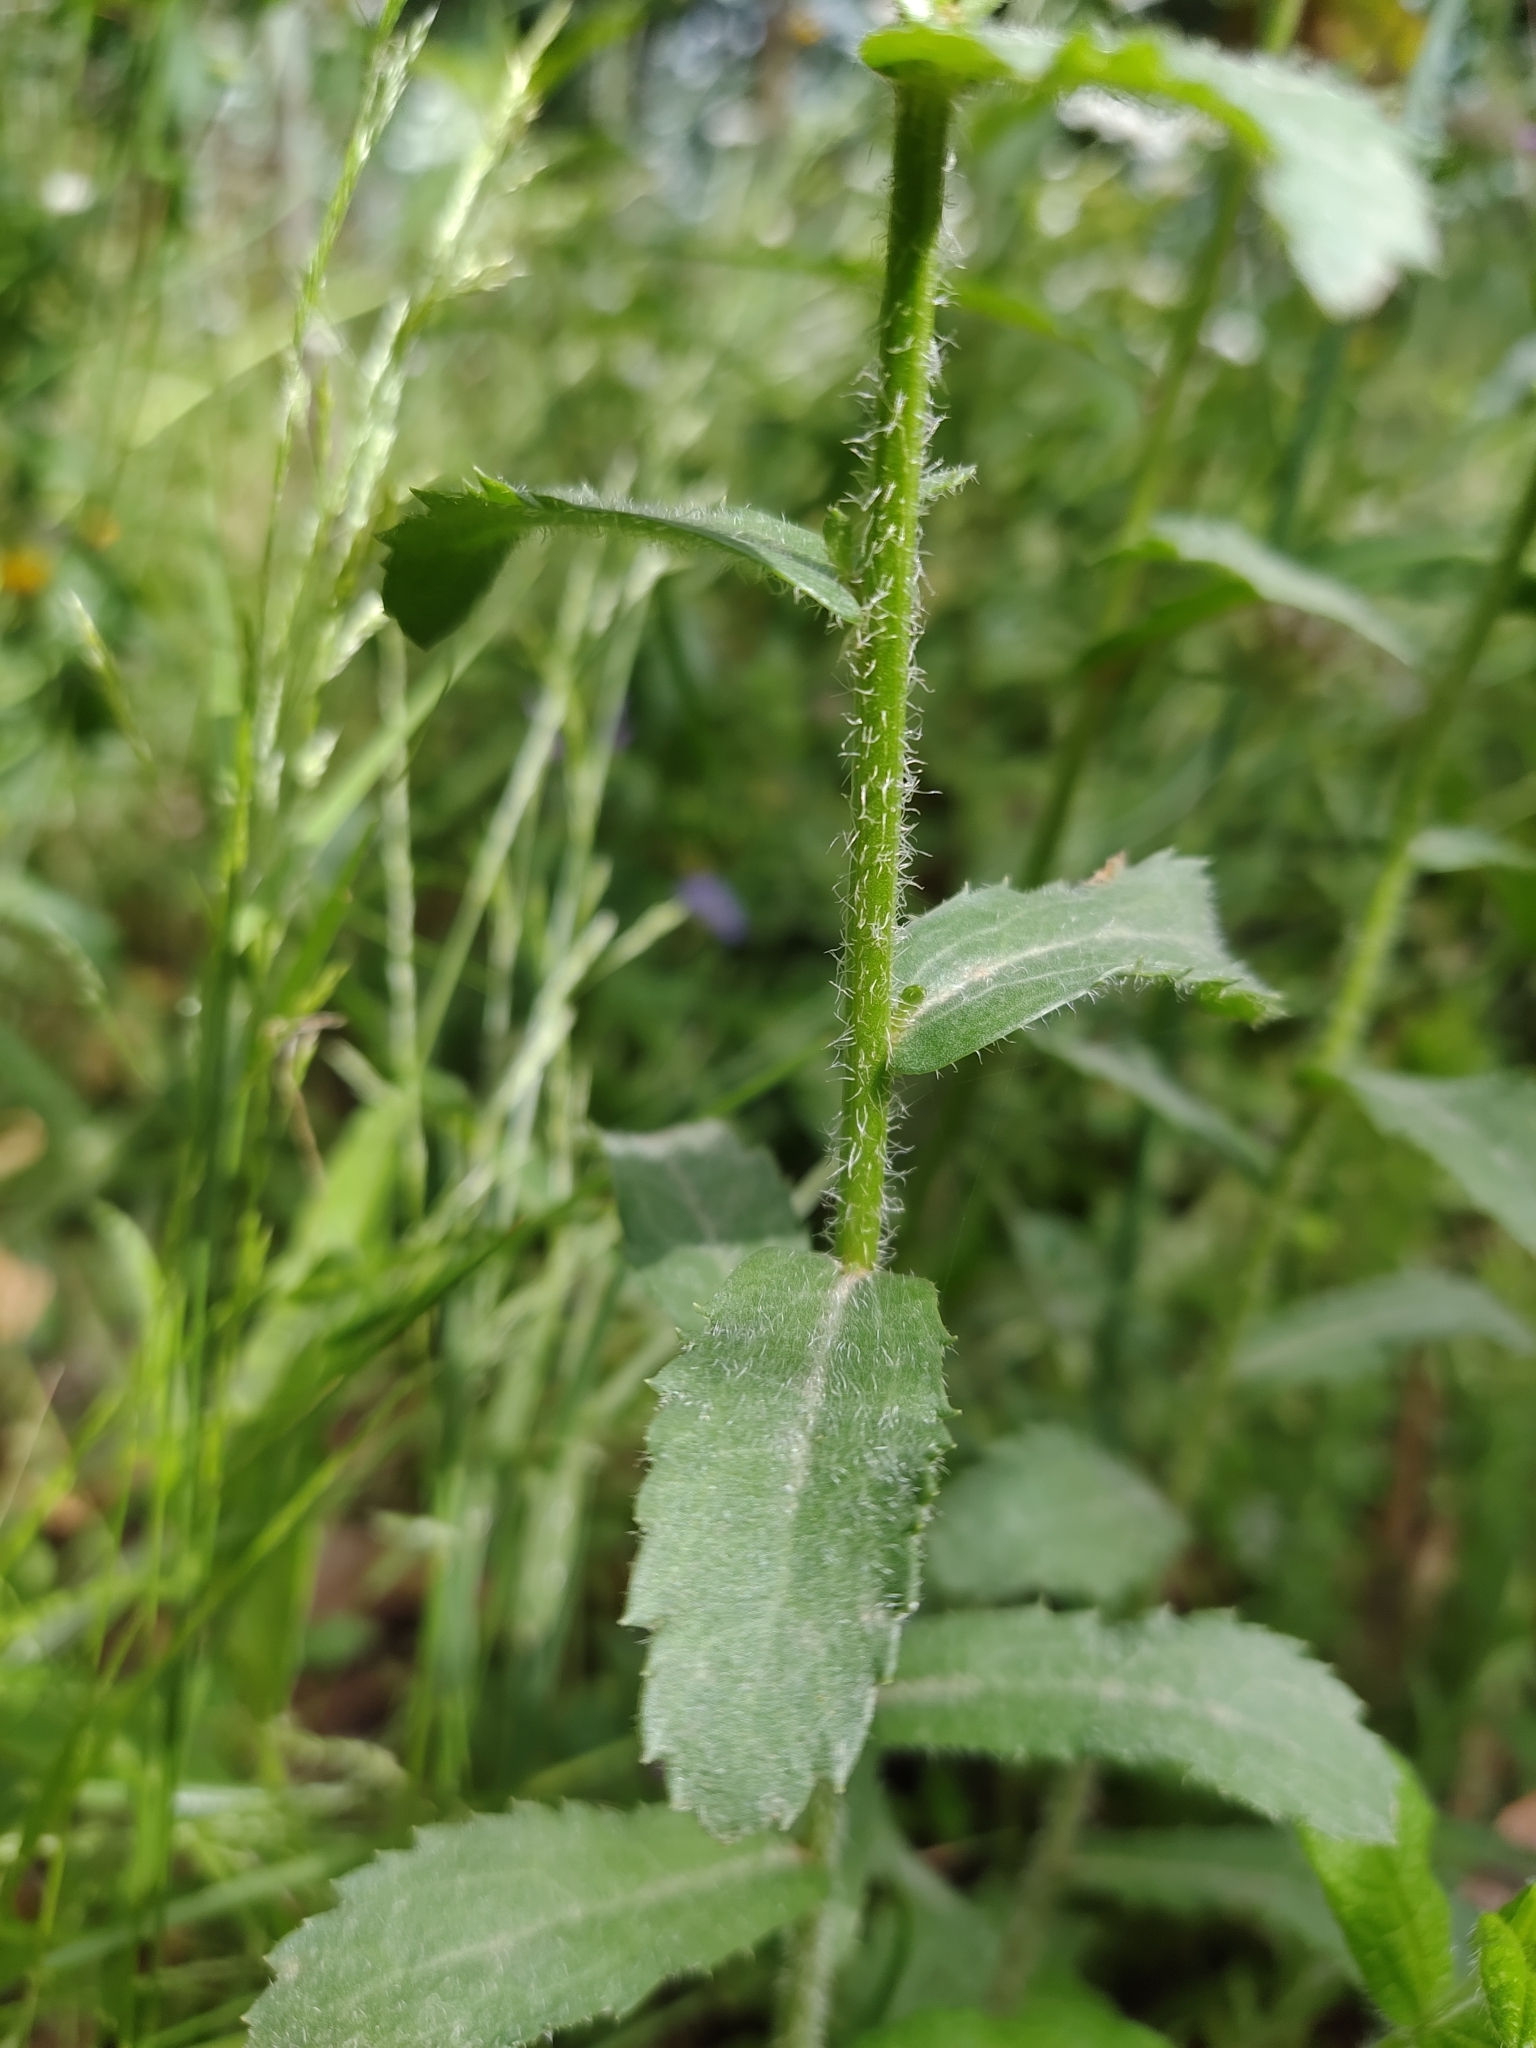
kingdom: Plantae
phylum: Tracheophyta
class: Magnoliopsida
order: Asterales
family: Asteraceae
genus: Leucanthemum
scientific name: Leucanthemum ircutianum
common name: Daisy
